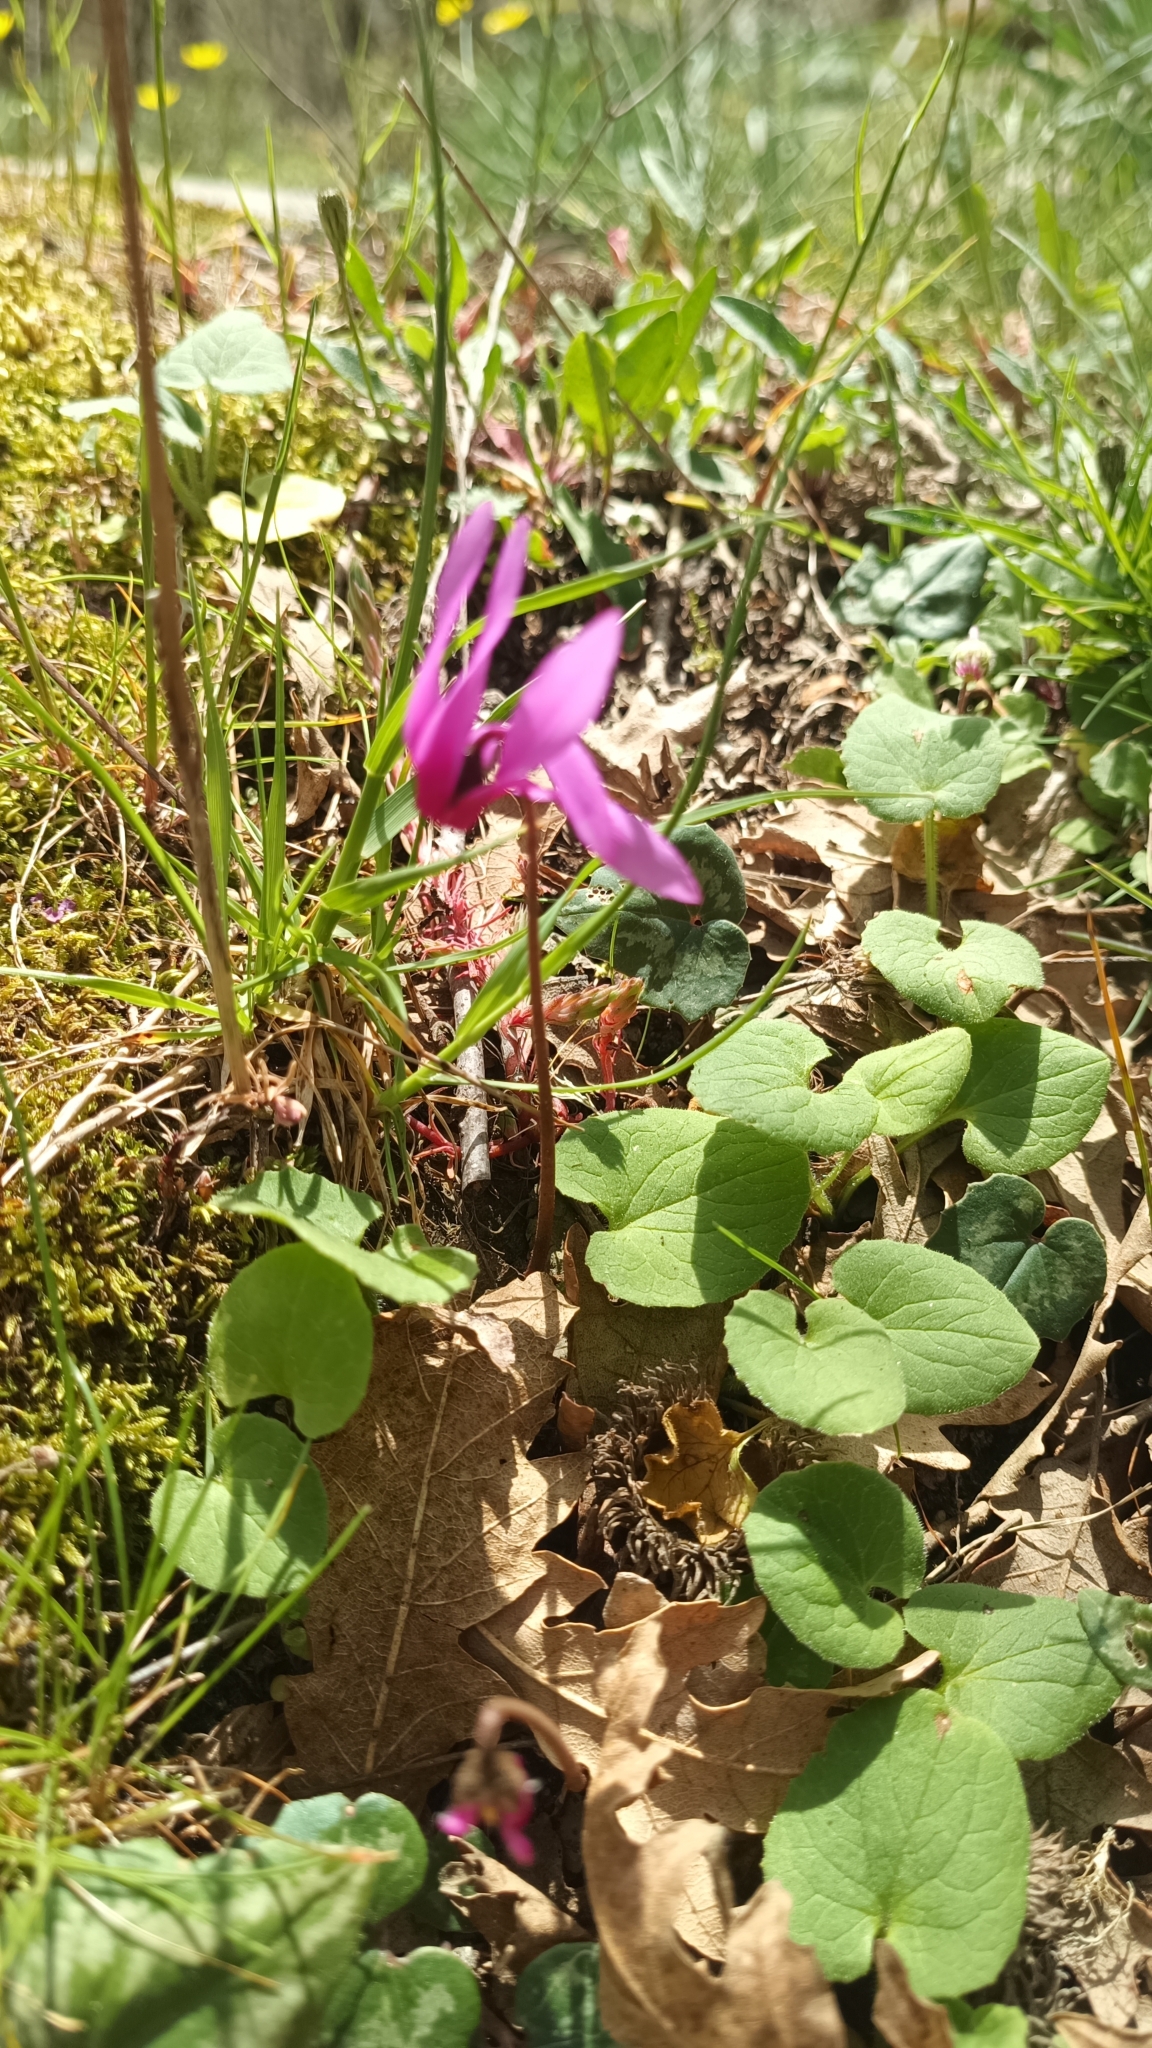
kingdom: Plantae
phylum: Tracheophyta
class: Magnoliopsida
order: Ericales
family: Primulaceae
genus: Cyclamen
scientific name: Cyclamen repandum
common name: Spring sowbread
